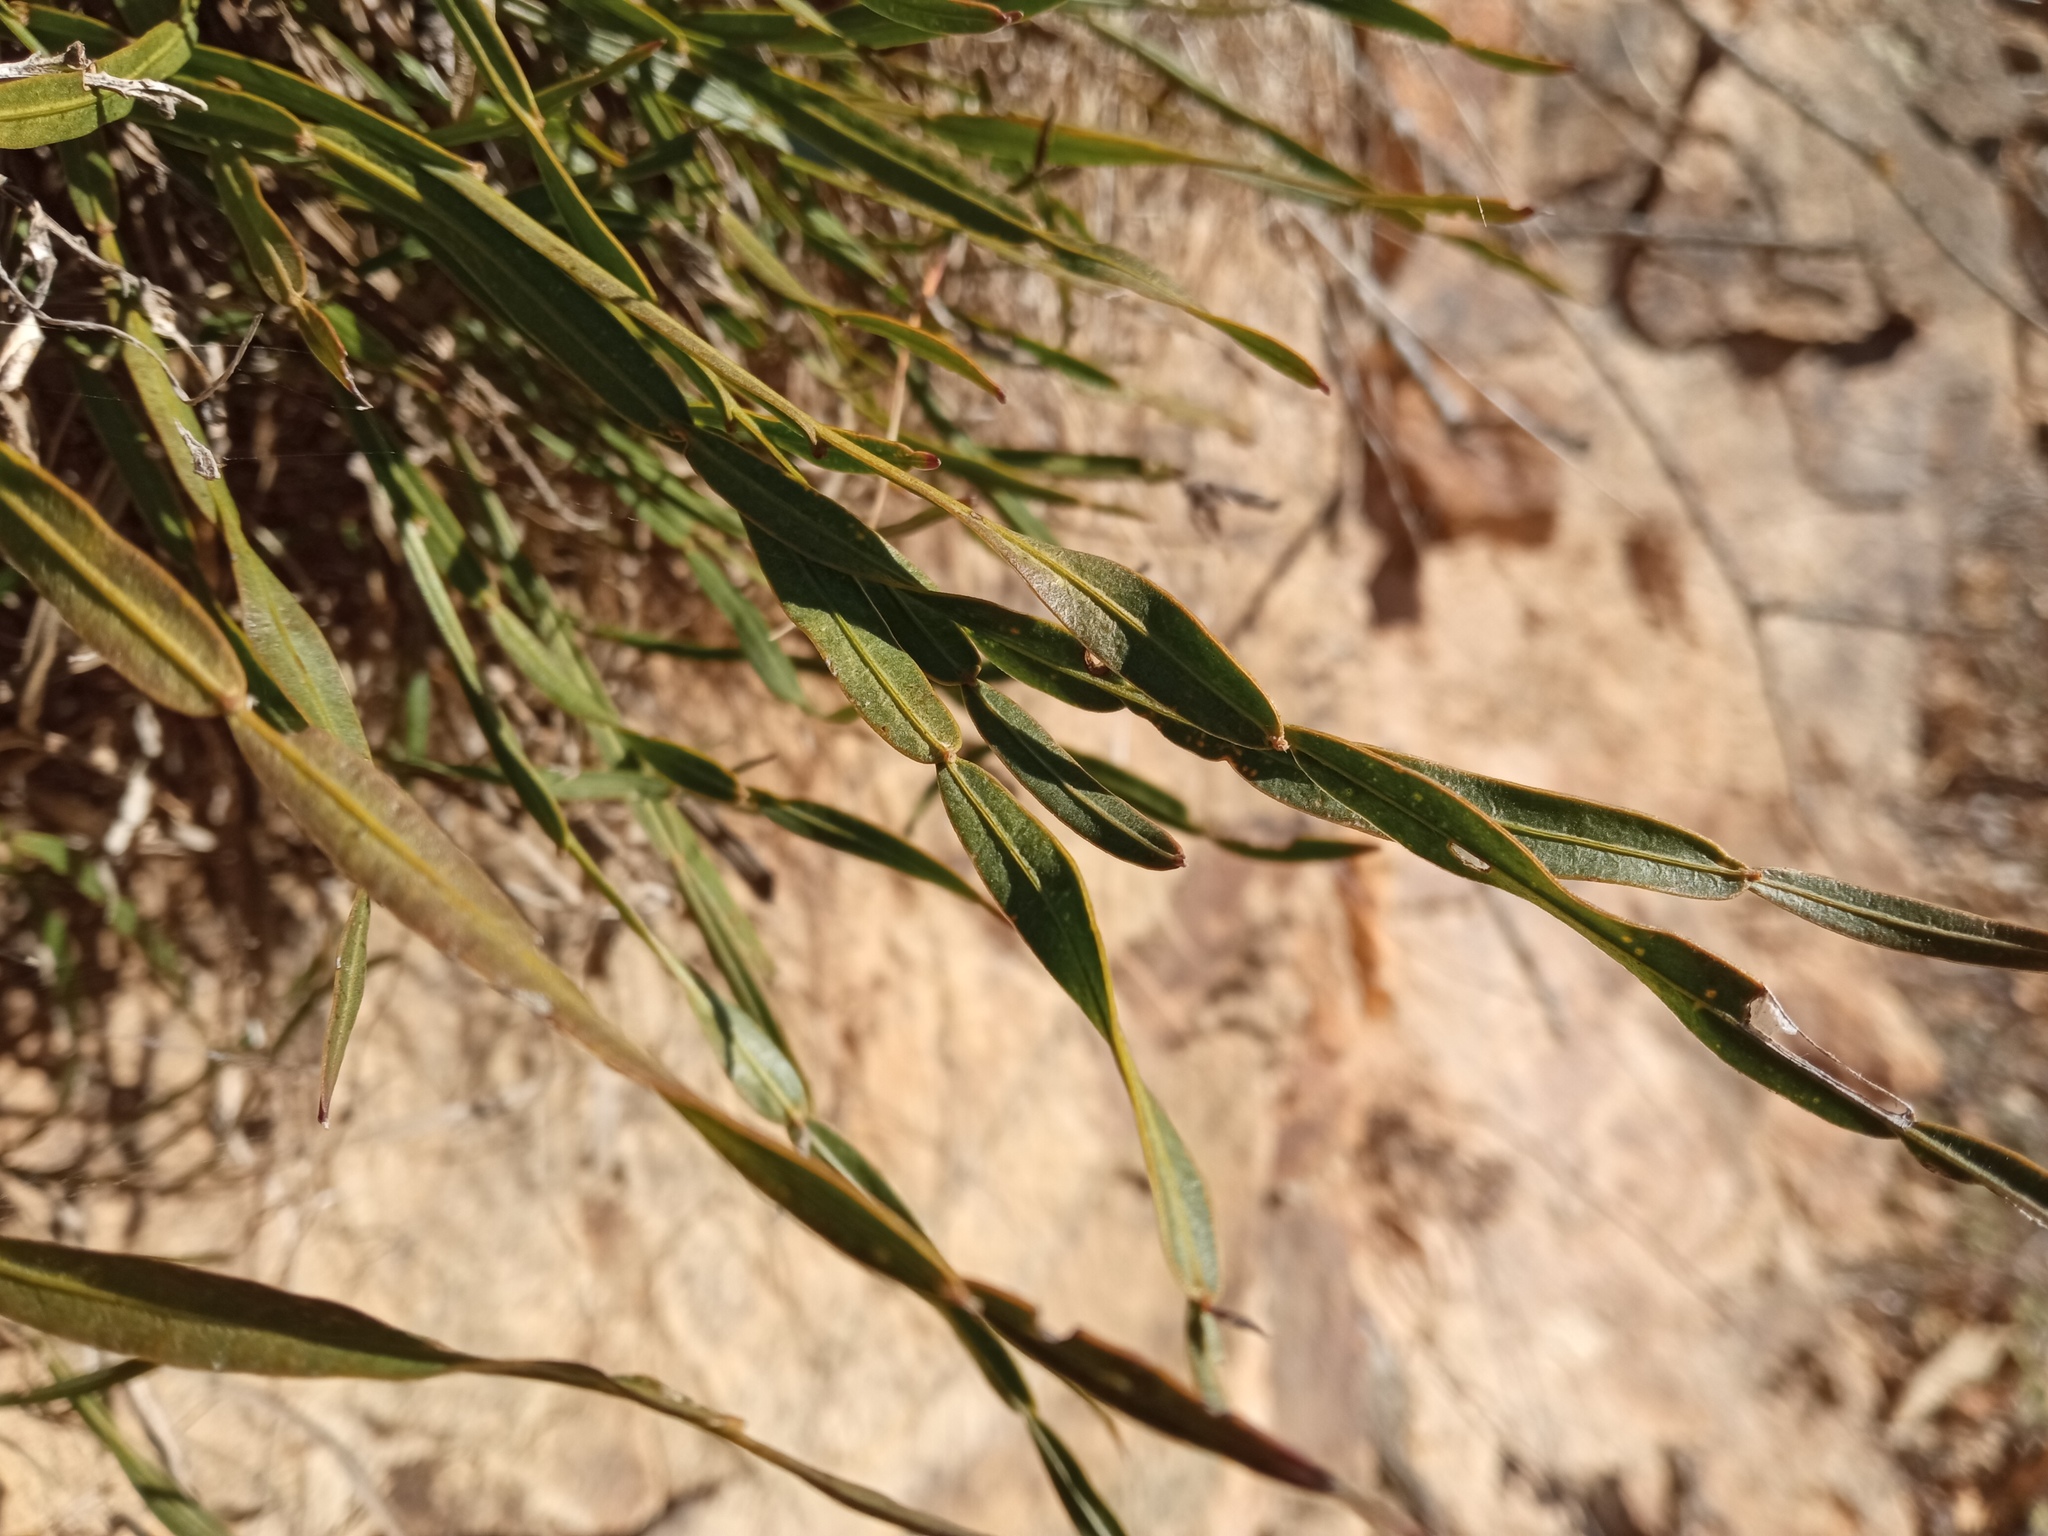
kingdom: Plantae
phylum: Tracheophyta
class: Magnoliopsida
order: Fabales
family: Fabaceae
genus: Genista
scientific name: Genista sagittalis
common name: Winged greenweed
